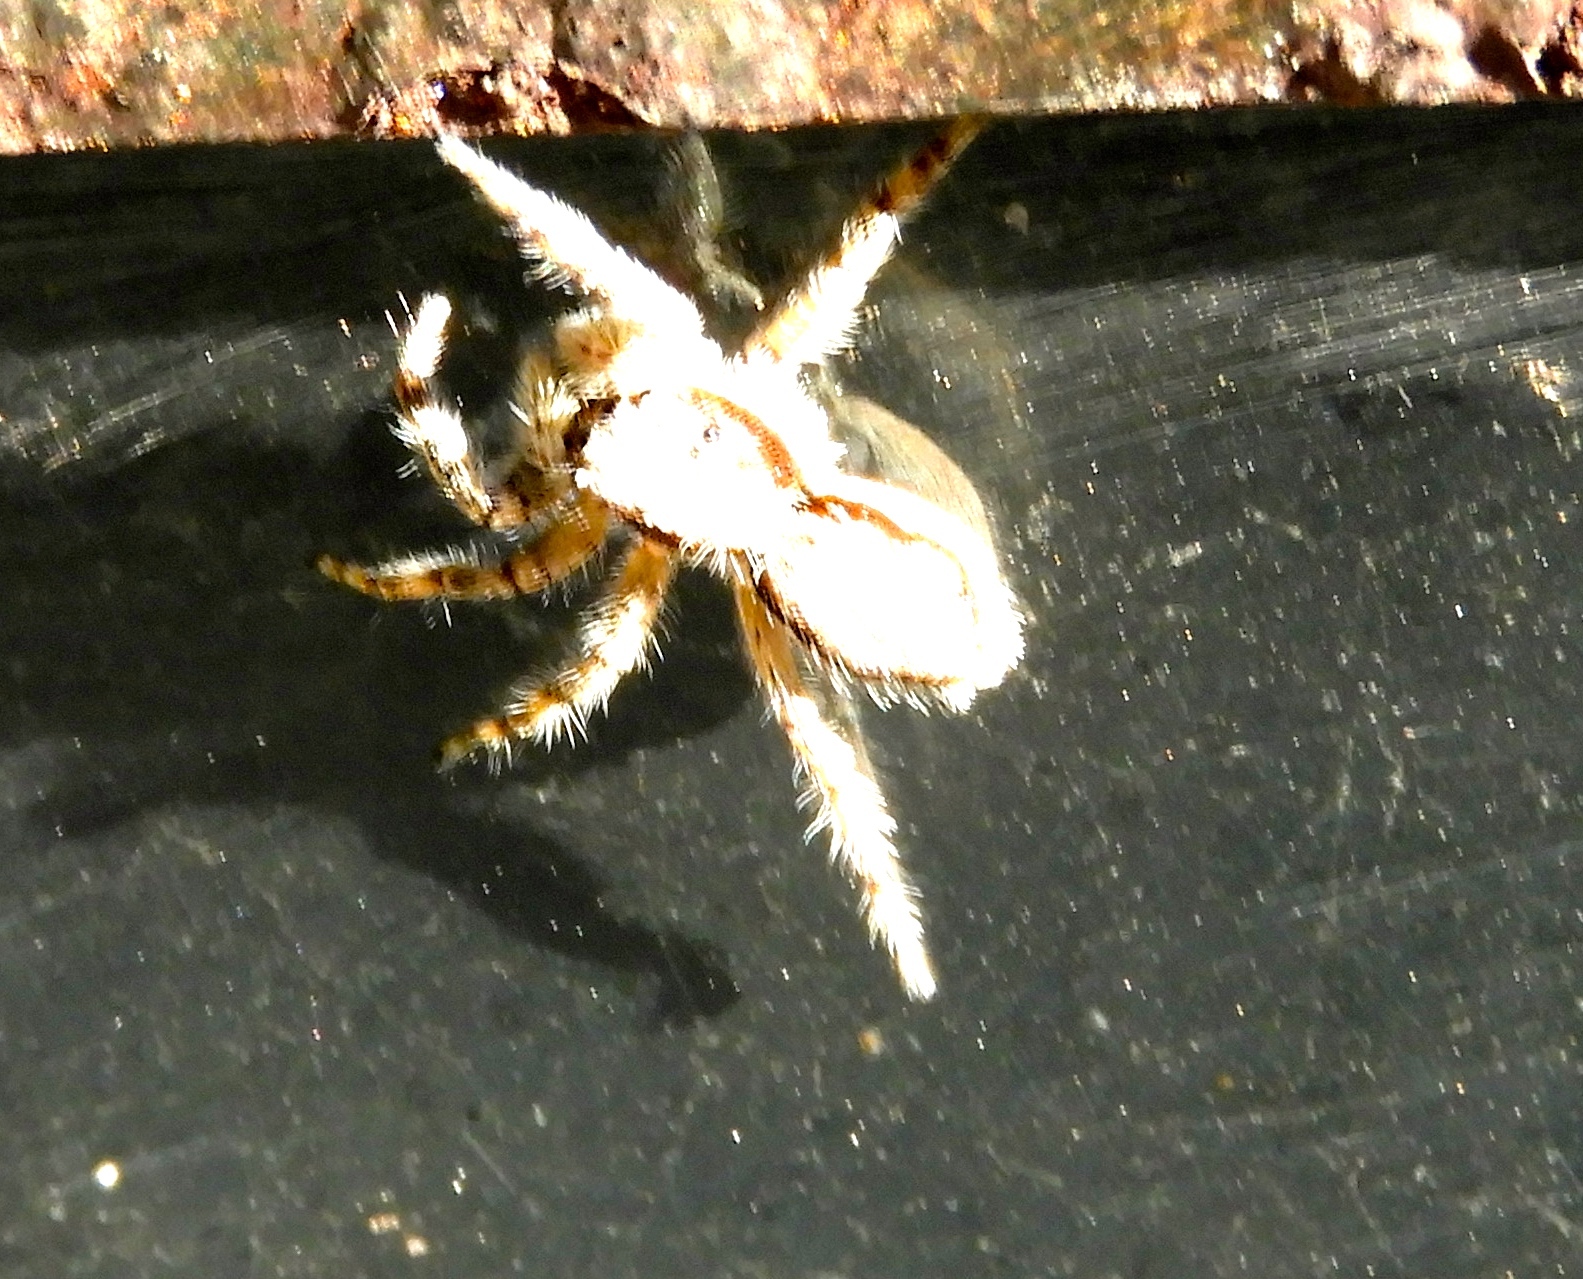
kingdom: Animalia
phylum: Arthropoda
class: Arachnida
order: Araneae
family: Salticidae
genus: Menemerus
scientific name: Menemerus bivittatus
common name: Gray wall jumper
